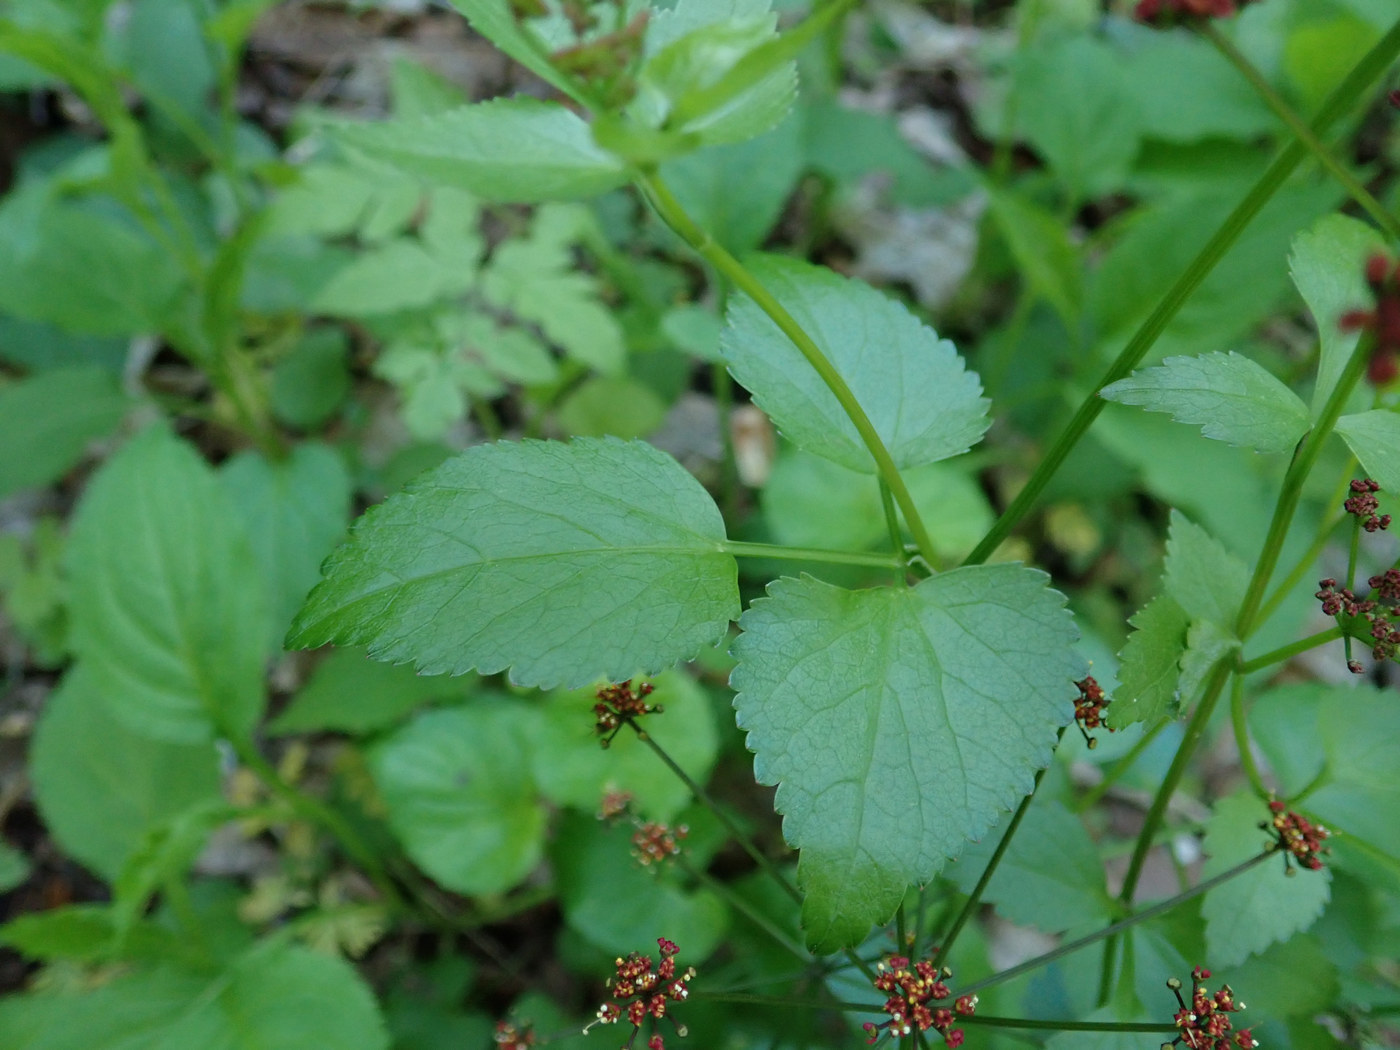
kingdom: Plantae
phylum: Tracheophyta
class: Magnoliopsida
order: Apiales
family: Apiaceae
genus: Thaspium
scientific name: Thaspium trifoliatum
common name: Purple meadow-parsnip
